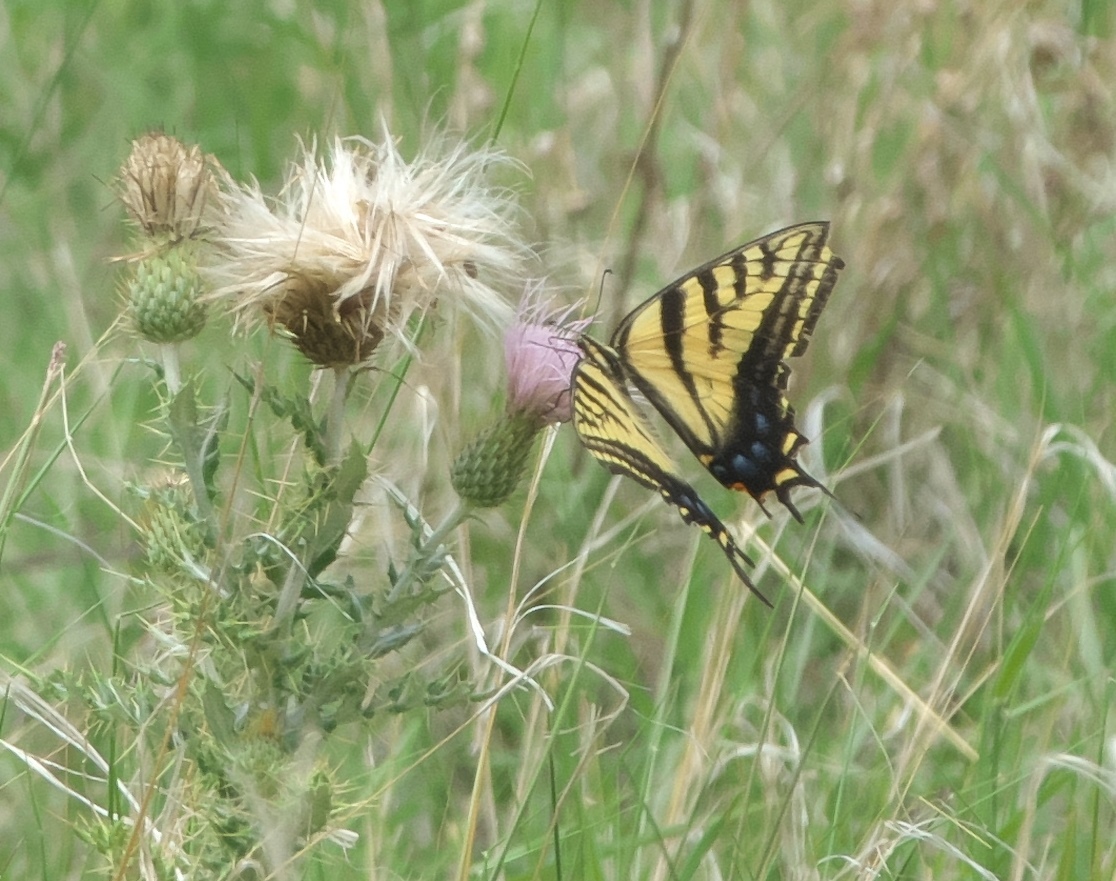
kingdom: Animalia
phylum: Arthropoda
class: Insecta
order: Lepidoptera
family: Papilionidae
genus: Papilio
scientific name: Papilio multicaudata
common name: Two-tailed tiger swallowtail
